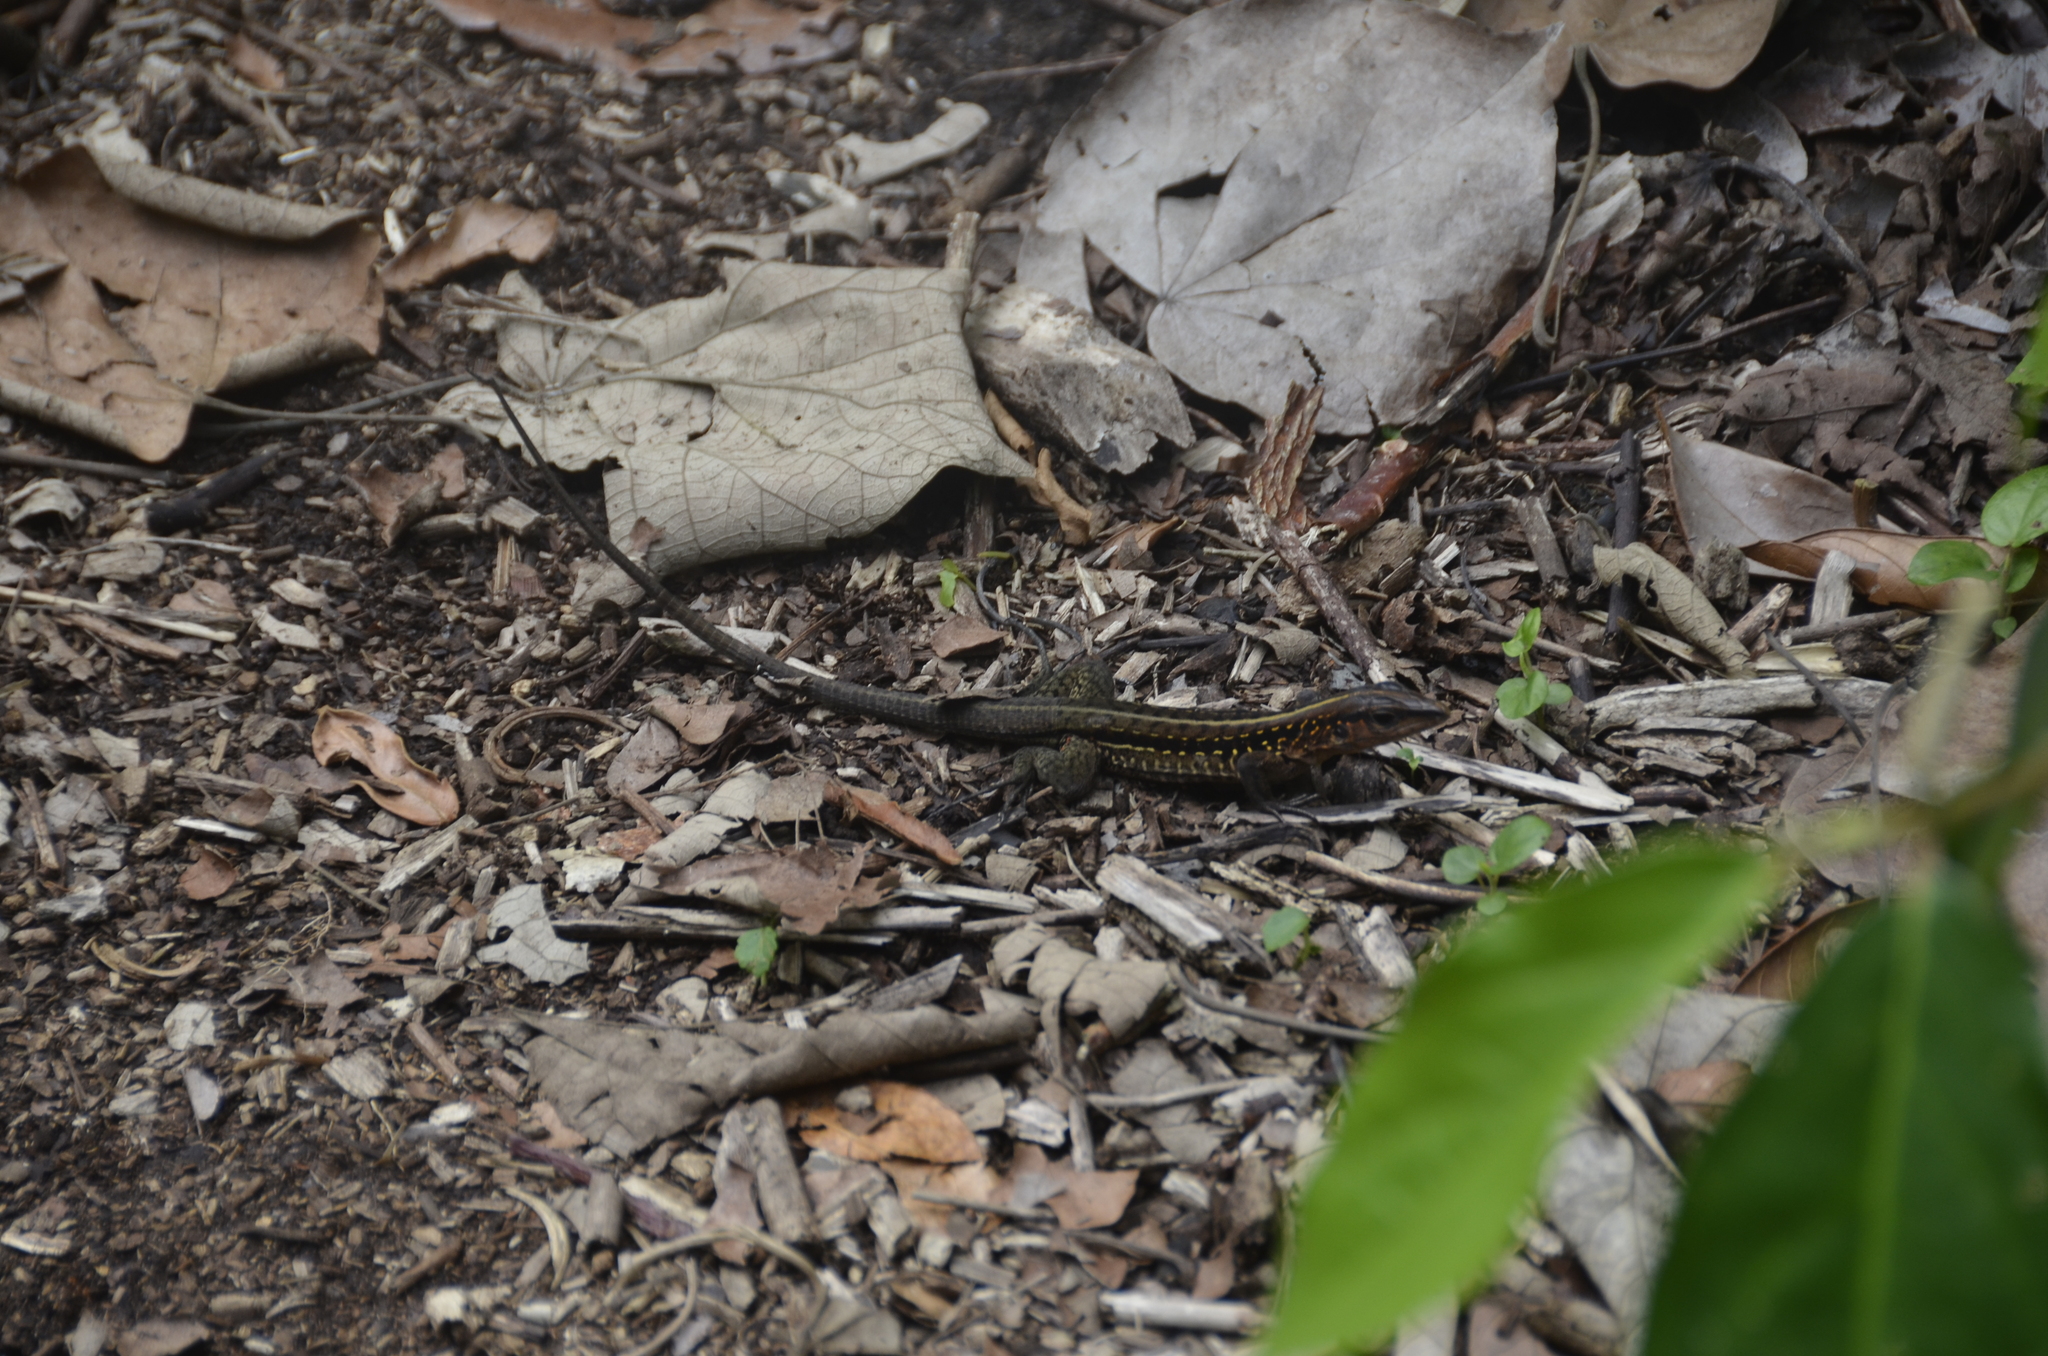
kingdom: Animalia
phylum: Chordata
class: Squamata
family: Teiidae
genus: Holcosus
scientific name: Holcosus festivus
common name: Middle american ameiva
